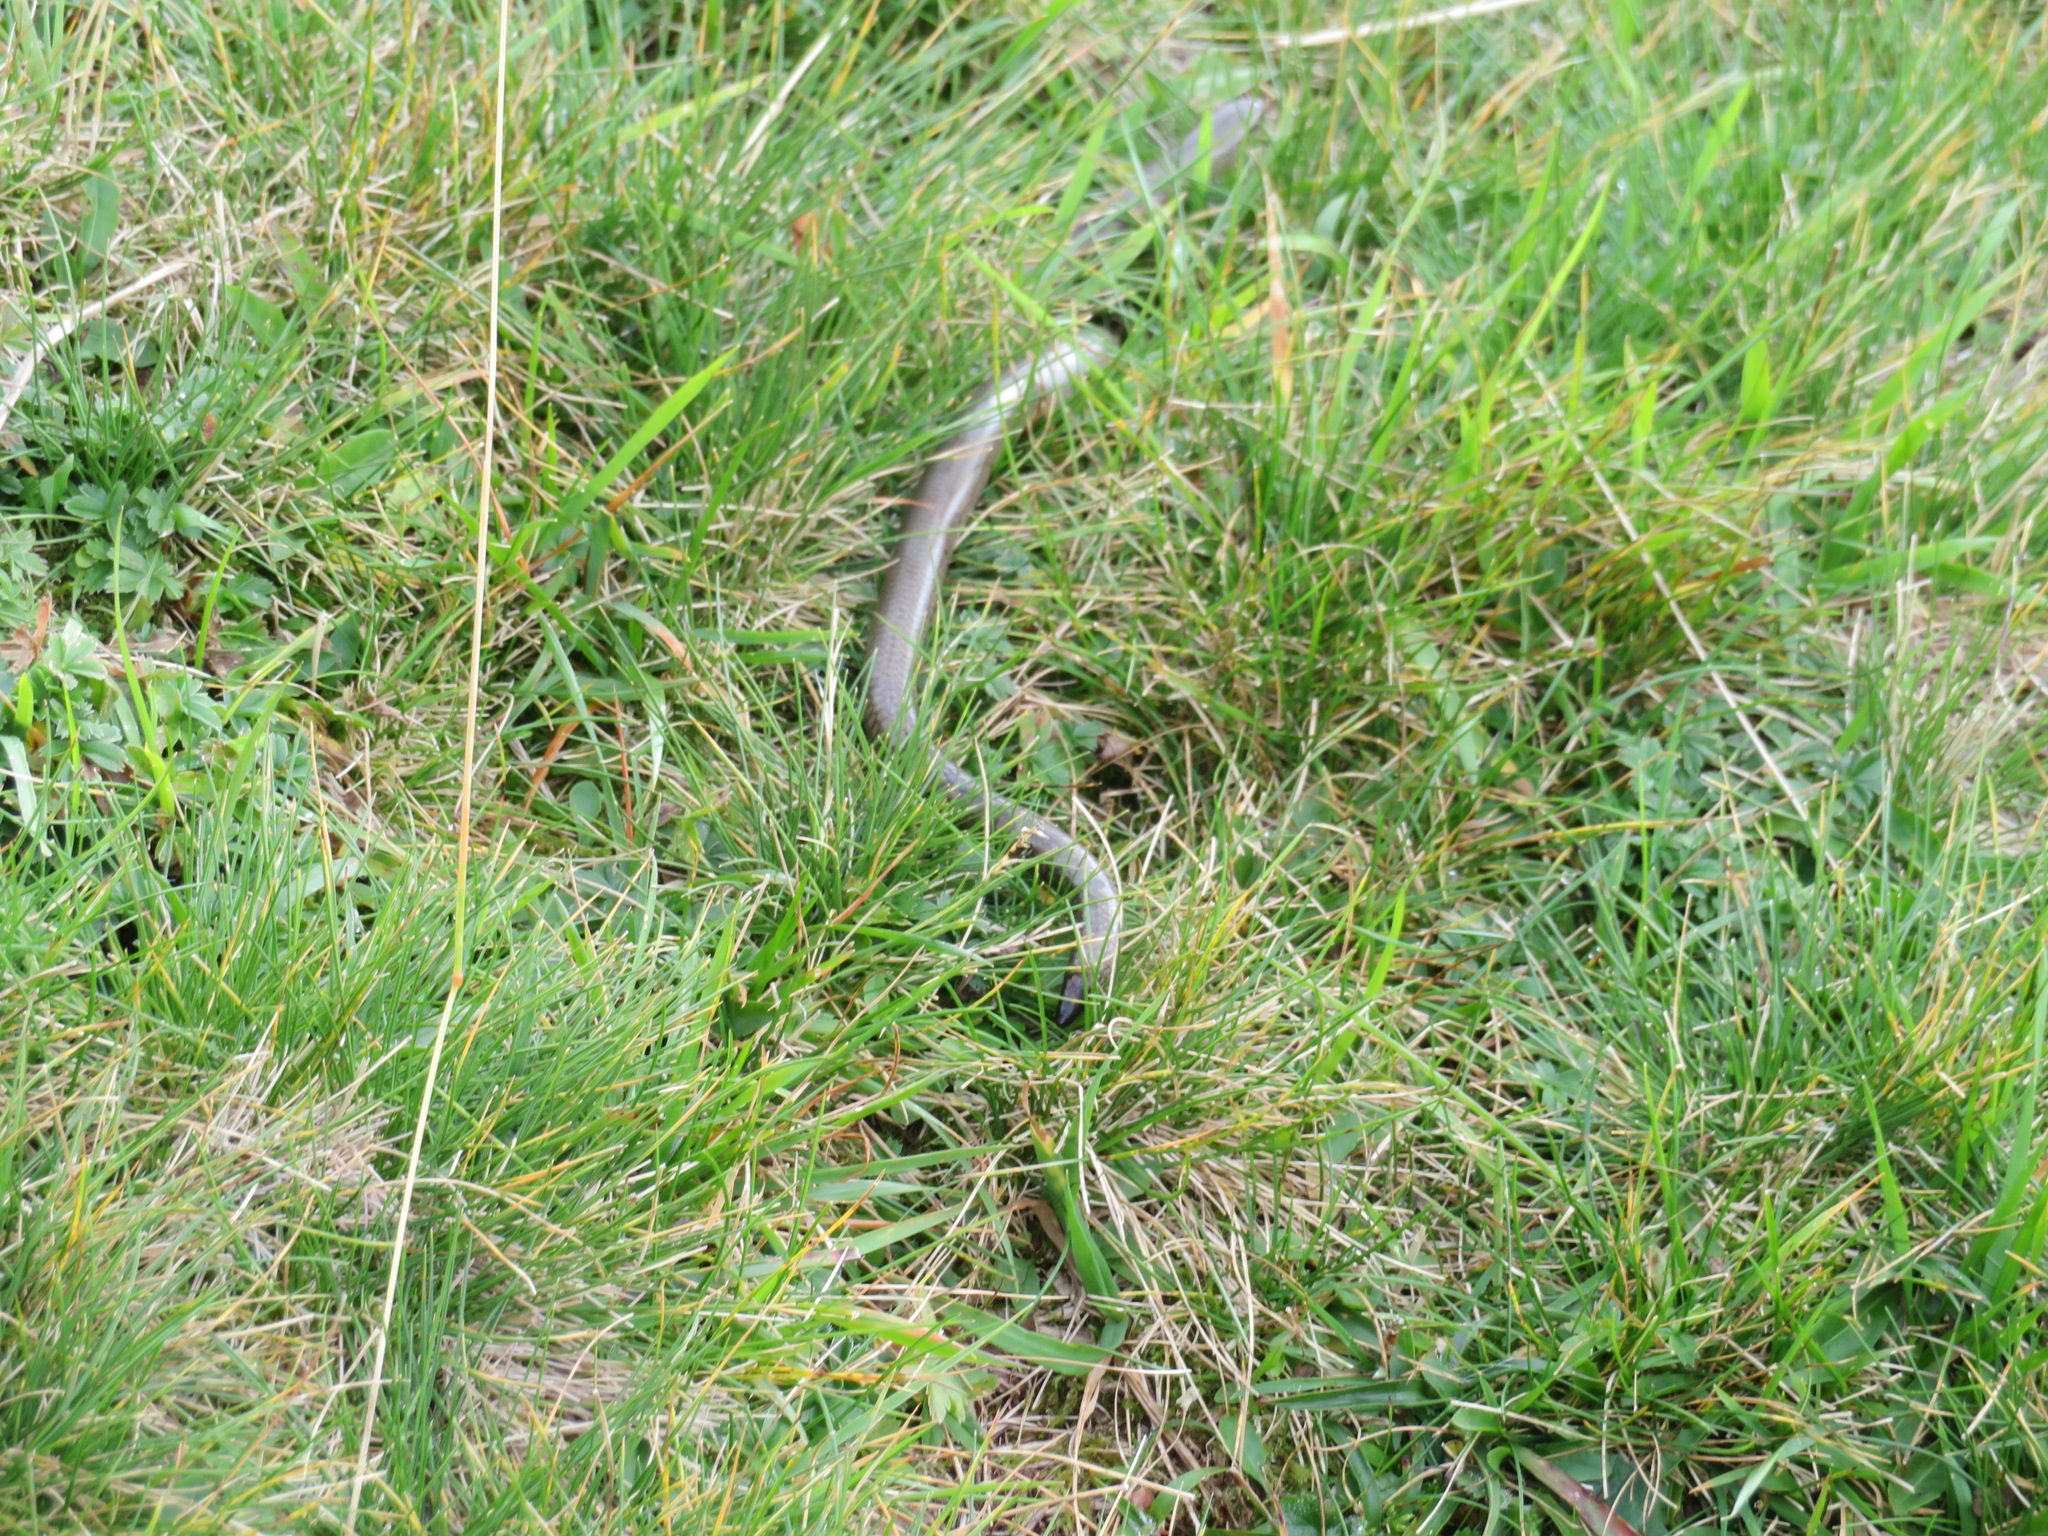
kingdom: Animalia
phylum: Chordata
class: Squamata
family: Anguidae
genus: Anguis
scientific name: Anguis veronensis
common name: Italian slow worm
